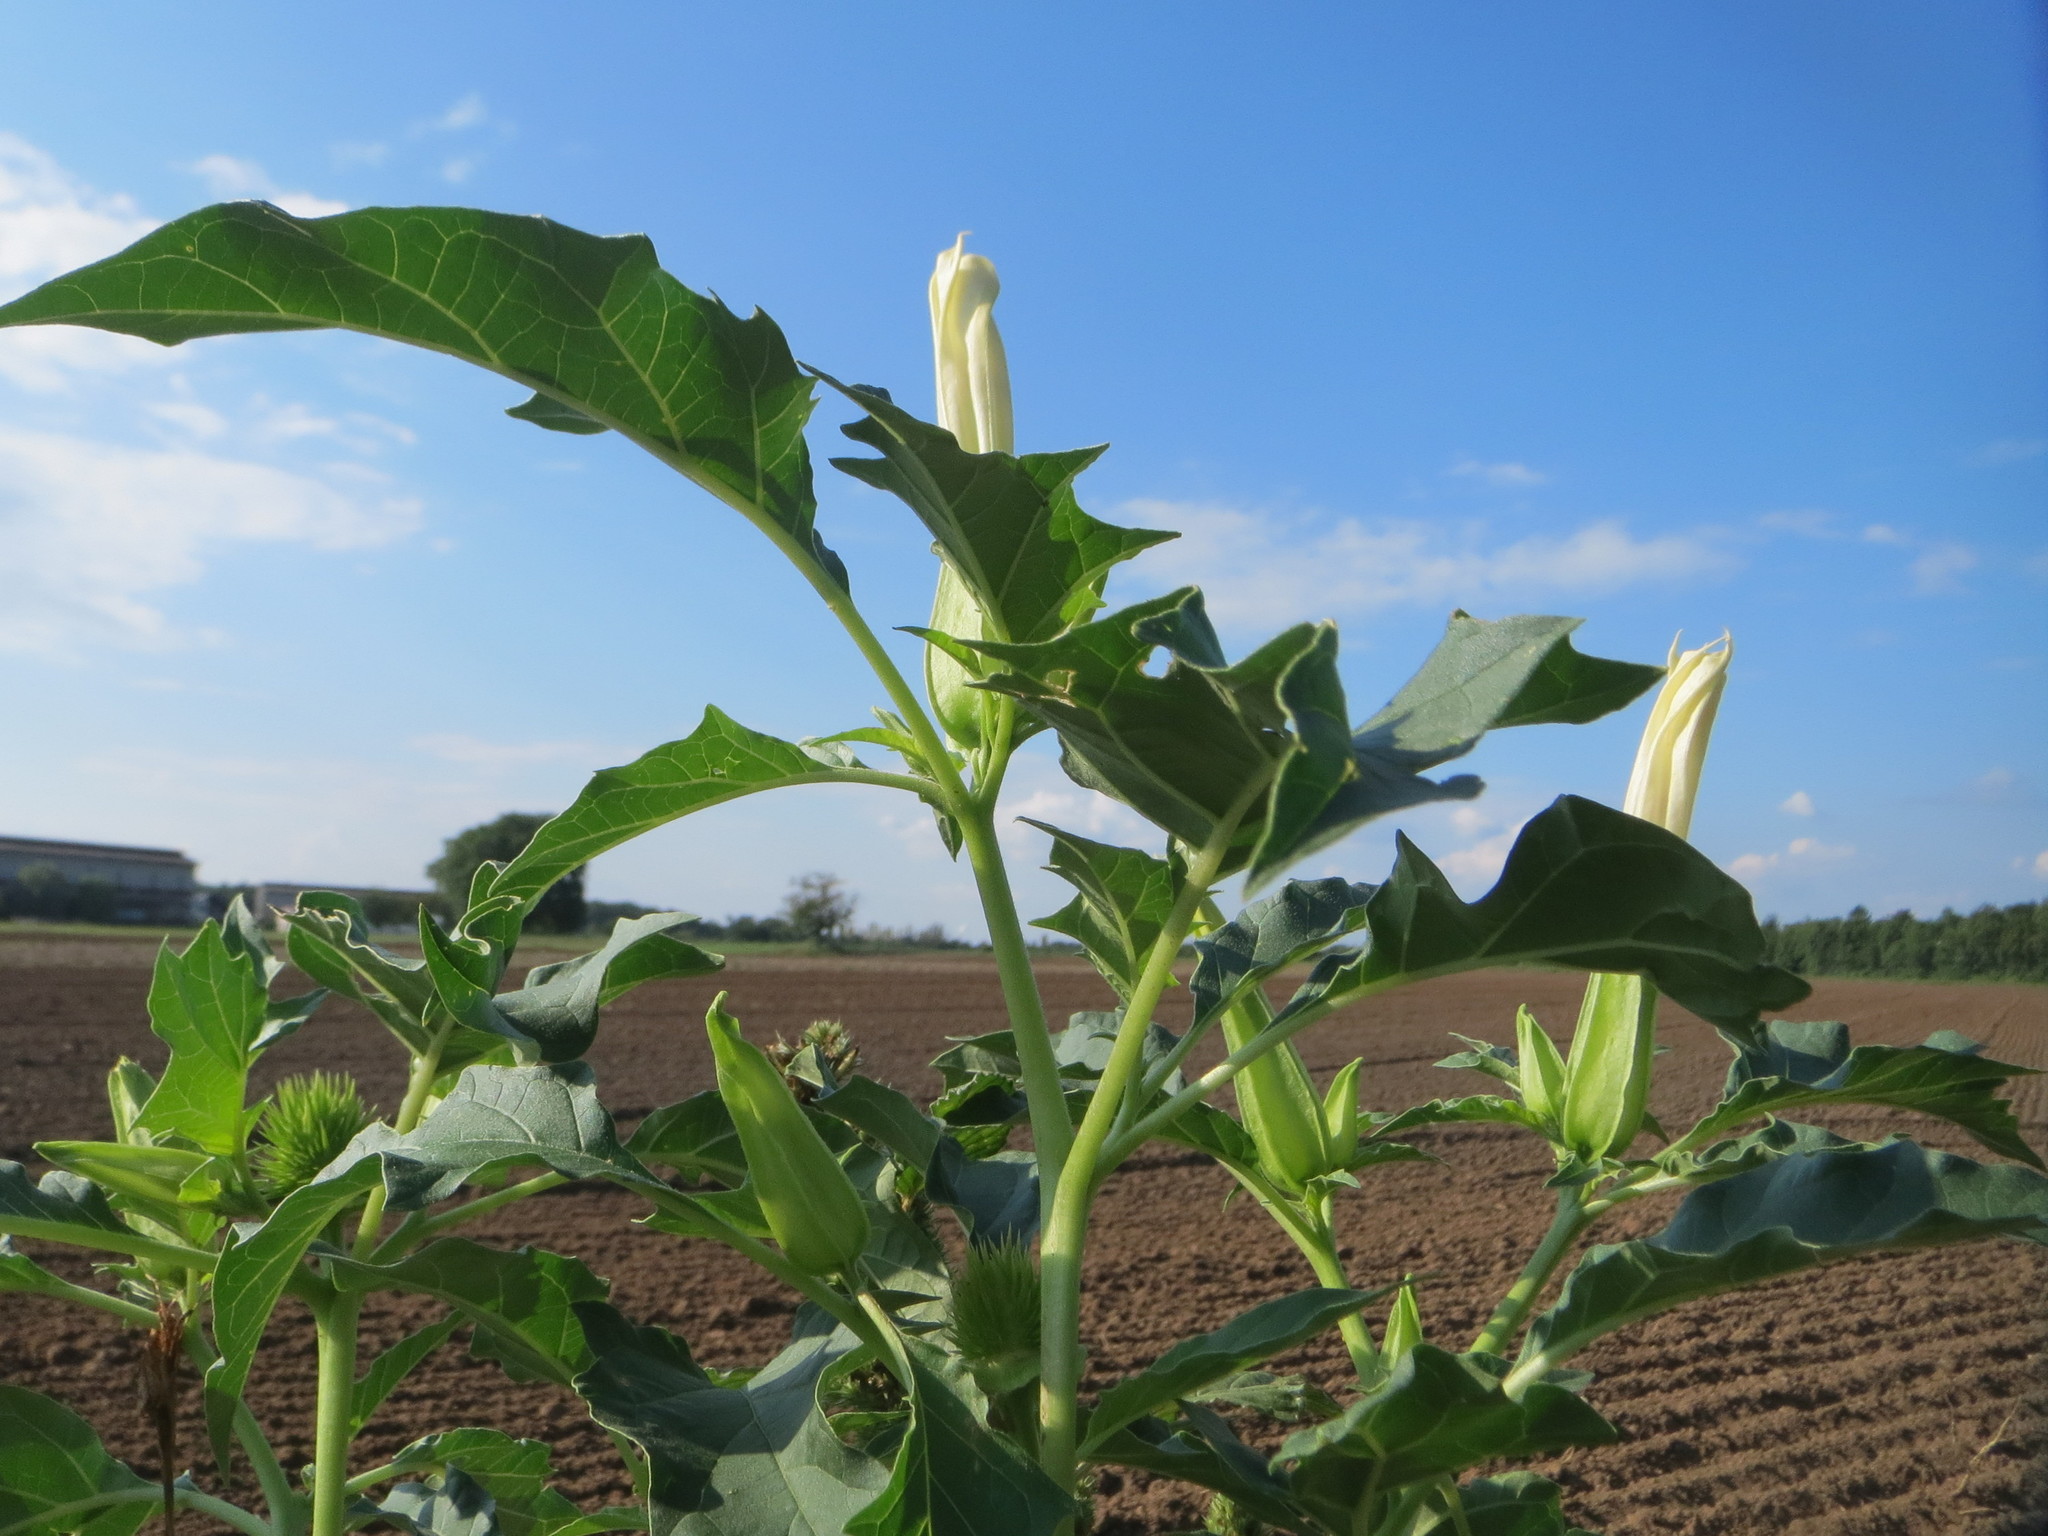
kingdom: Plantae
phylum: Tracheophyta
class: Magnoliopsida
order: Solanales
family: Solanaceae
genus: Datura
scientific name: Datura stramonium
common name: Thorn-apple
